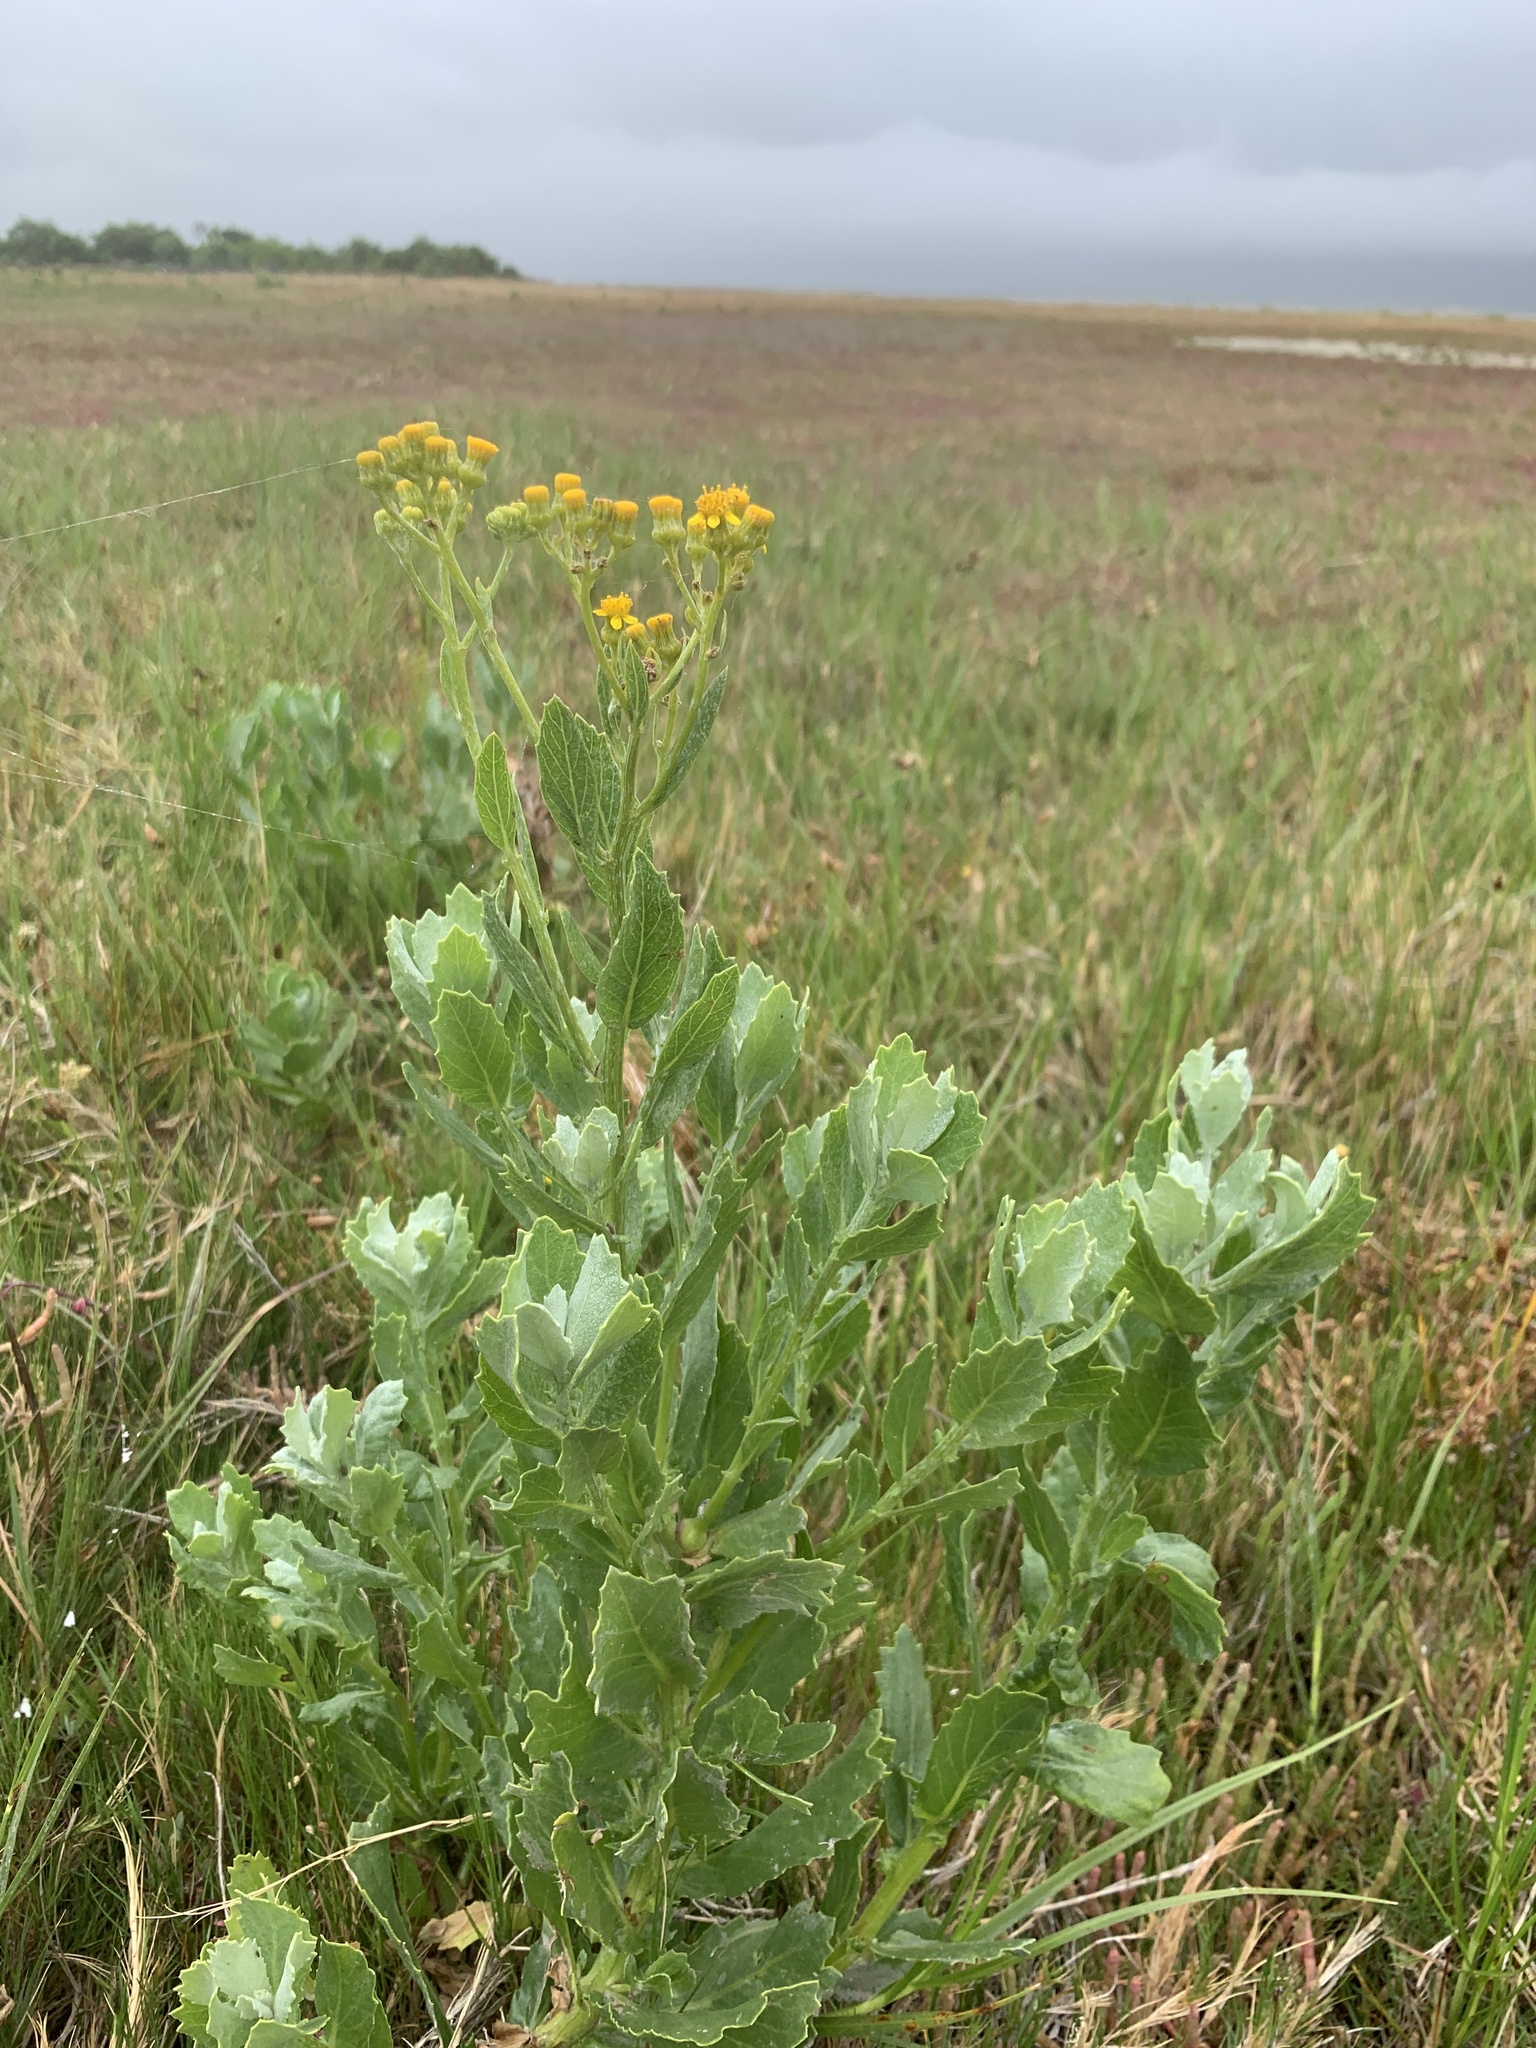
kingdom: Plantae
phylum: Tracheophyta
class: Magnoliopsida
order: Asterales
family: Asteraceae
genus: Senecio
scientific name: Senecio halimifolius
